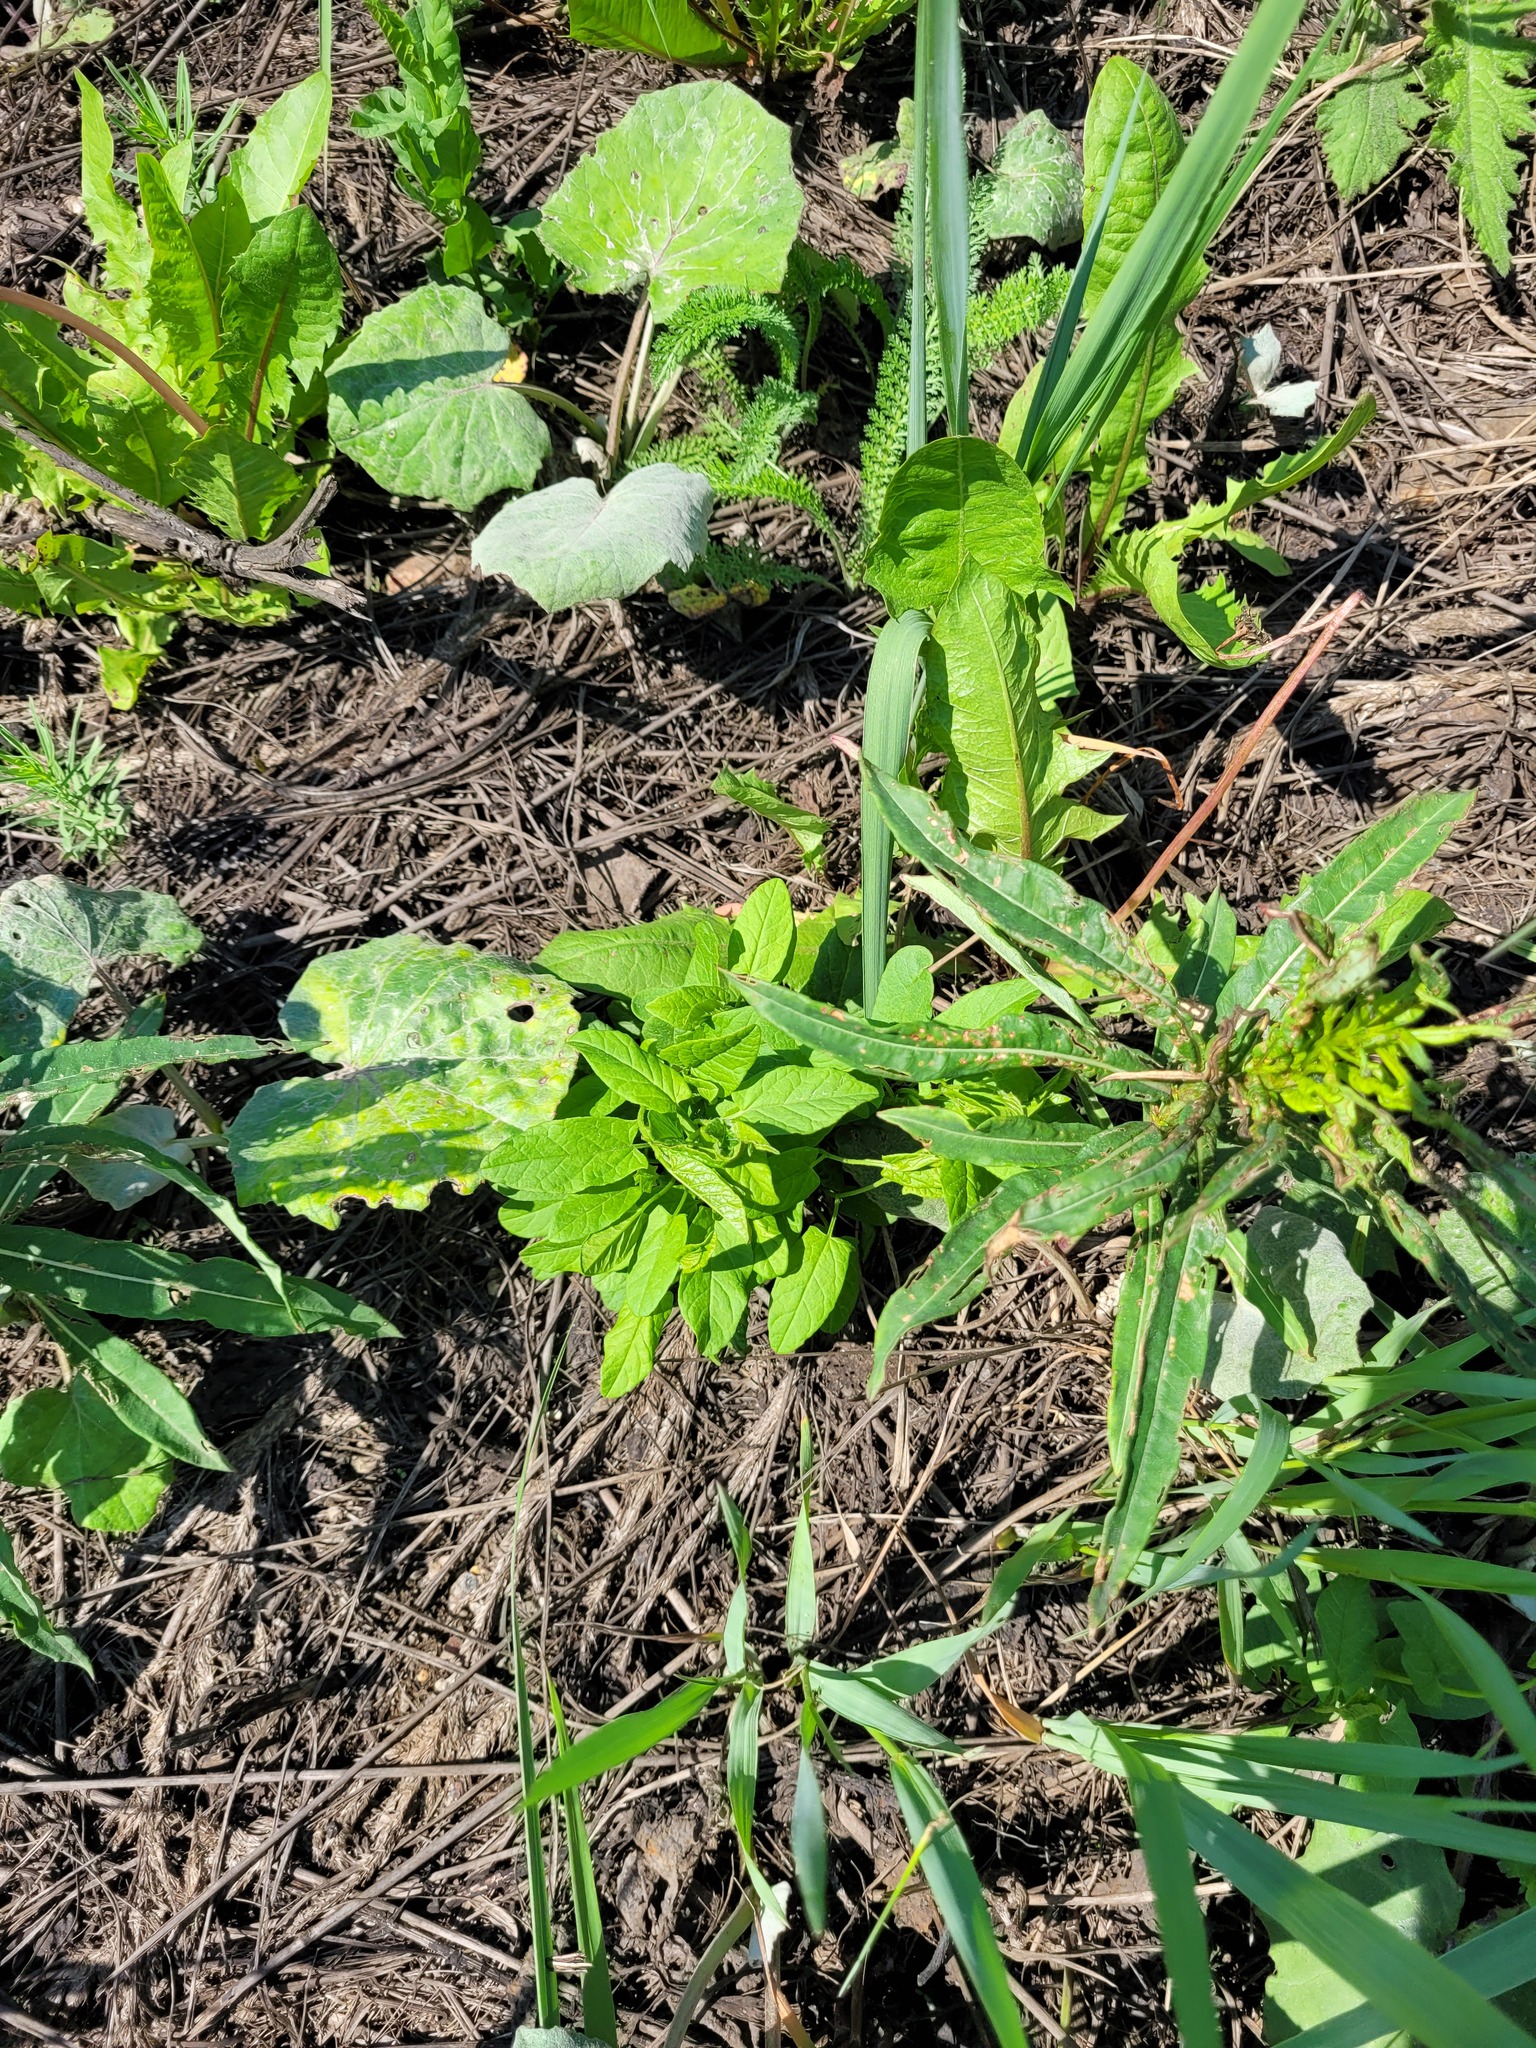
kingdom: Plantae
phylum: Tracheophyta
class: Magnoliopsida
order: Solanales
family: Convolvulaceae
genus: Convolvulus
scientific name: Convolvulus arvensis
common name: Field bindweed
